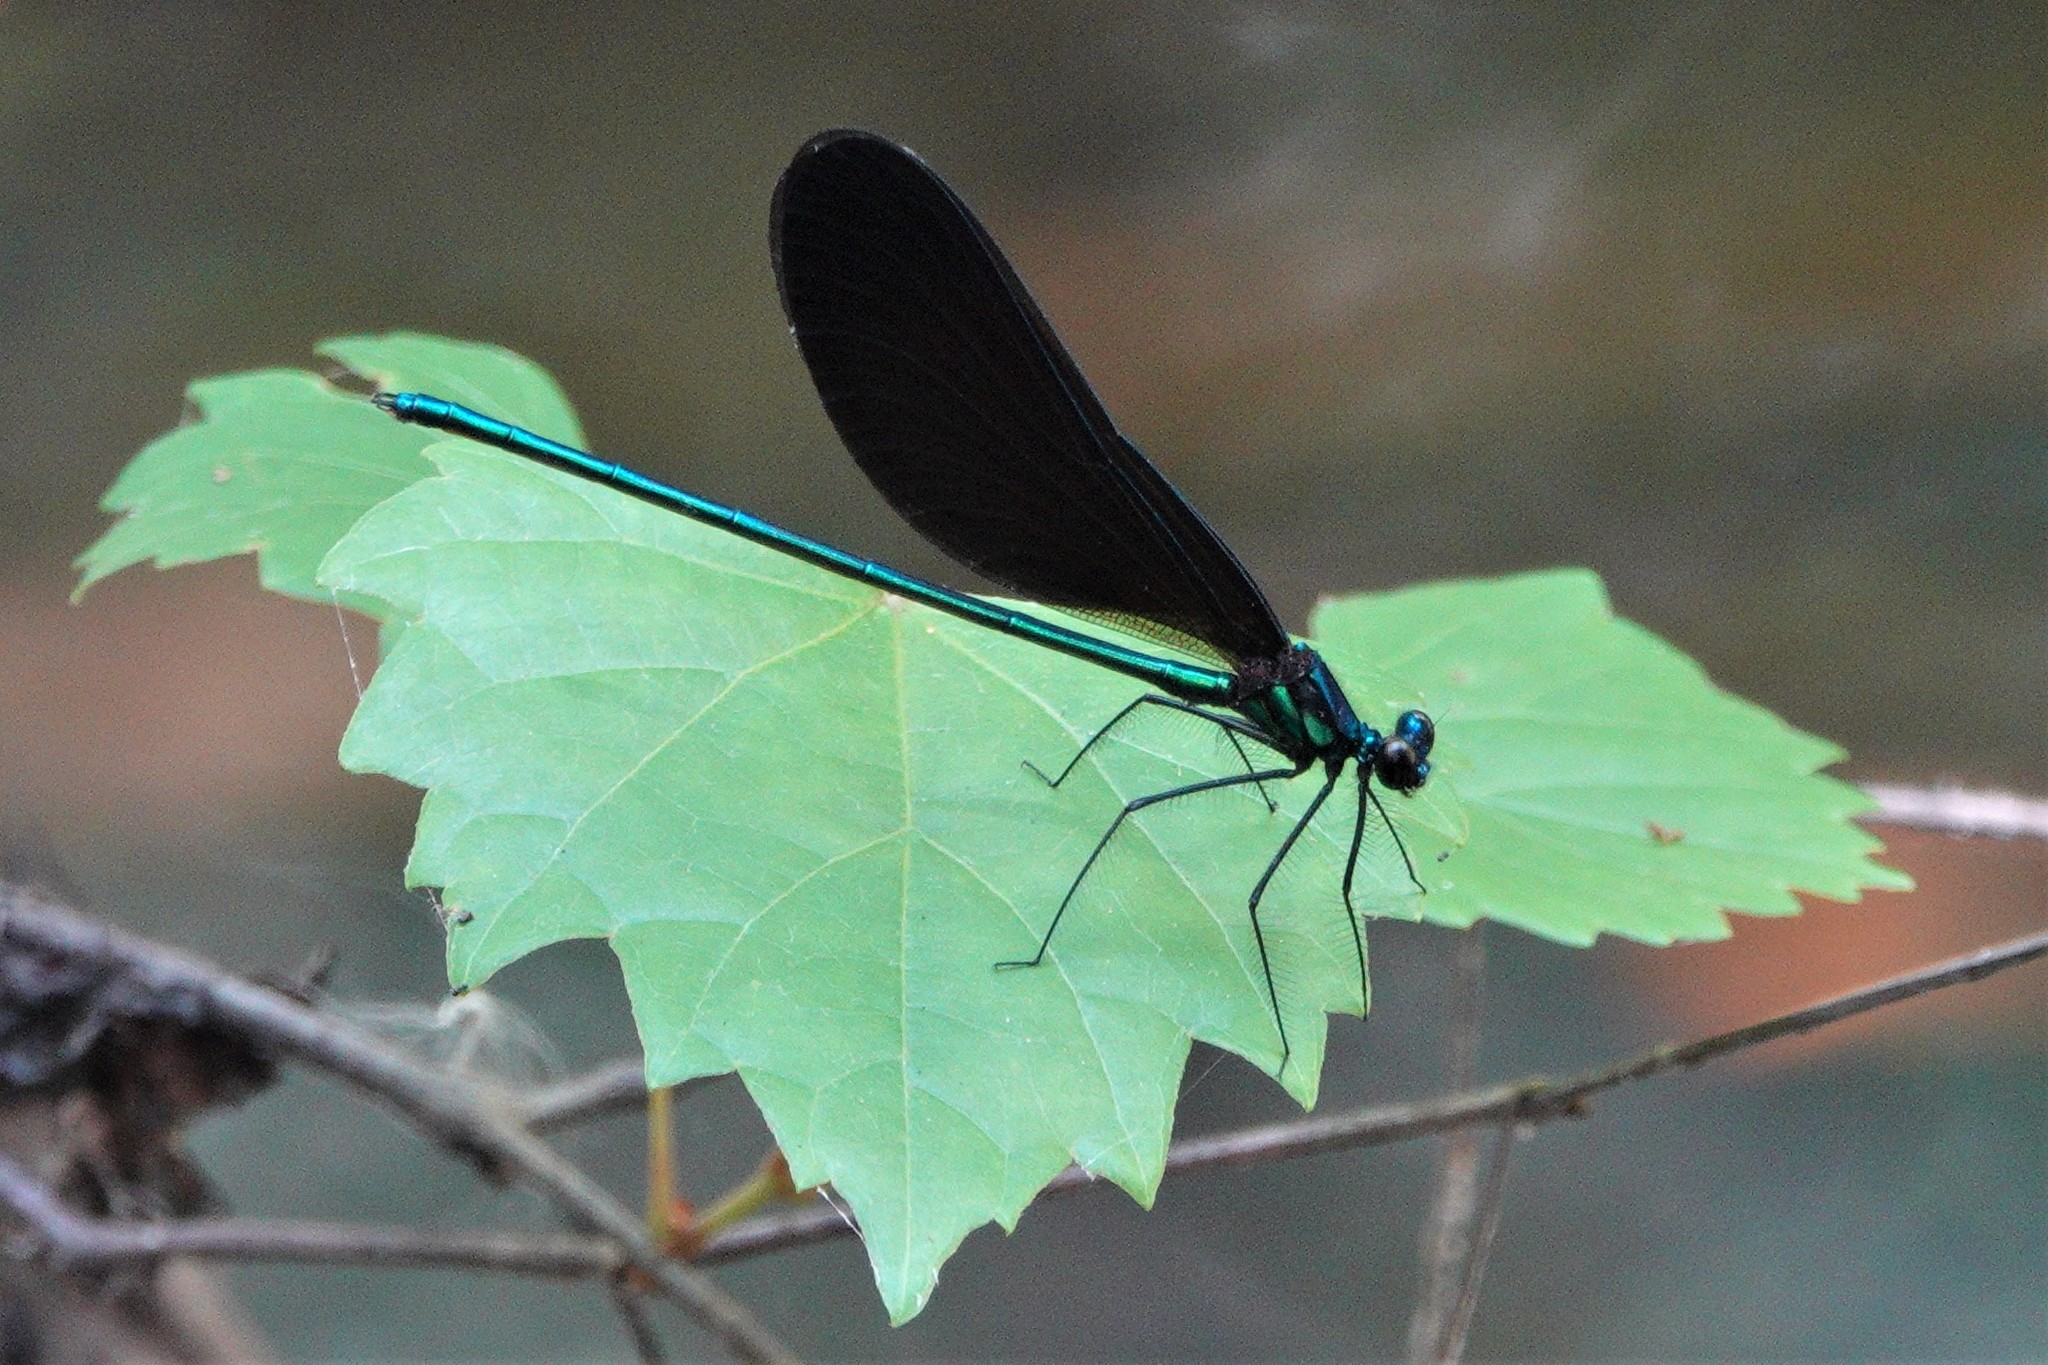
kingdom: Animalia
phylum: Arthropoda
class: Insecta
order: Odonata
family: Calopterygidae
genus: Calopteryx
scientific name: Calopteryx maculata
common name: Ebony jewelwing
